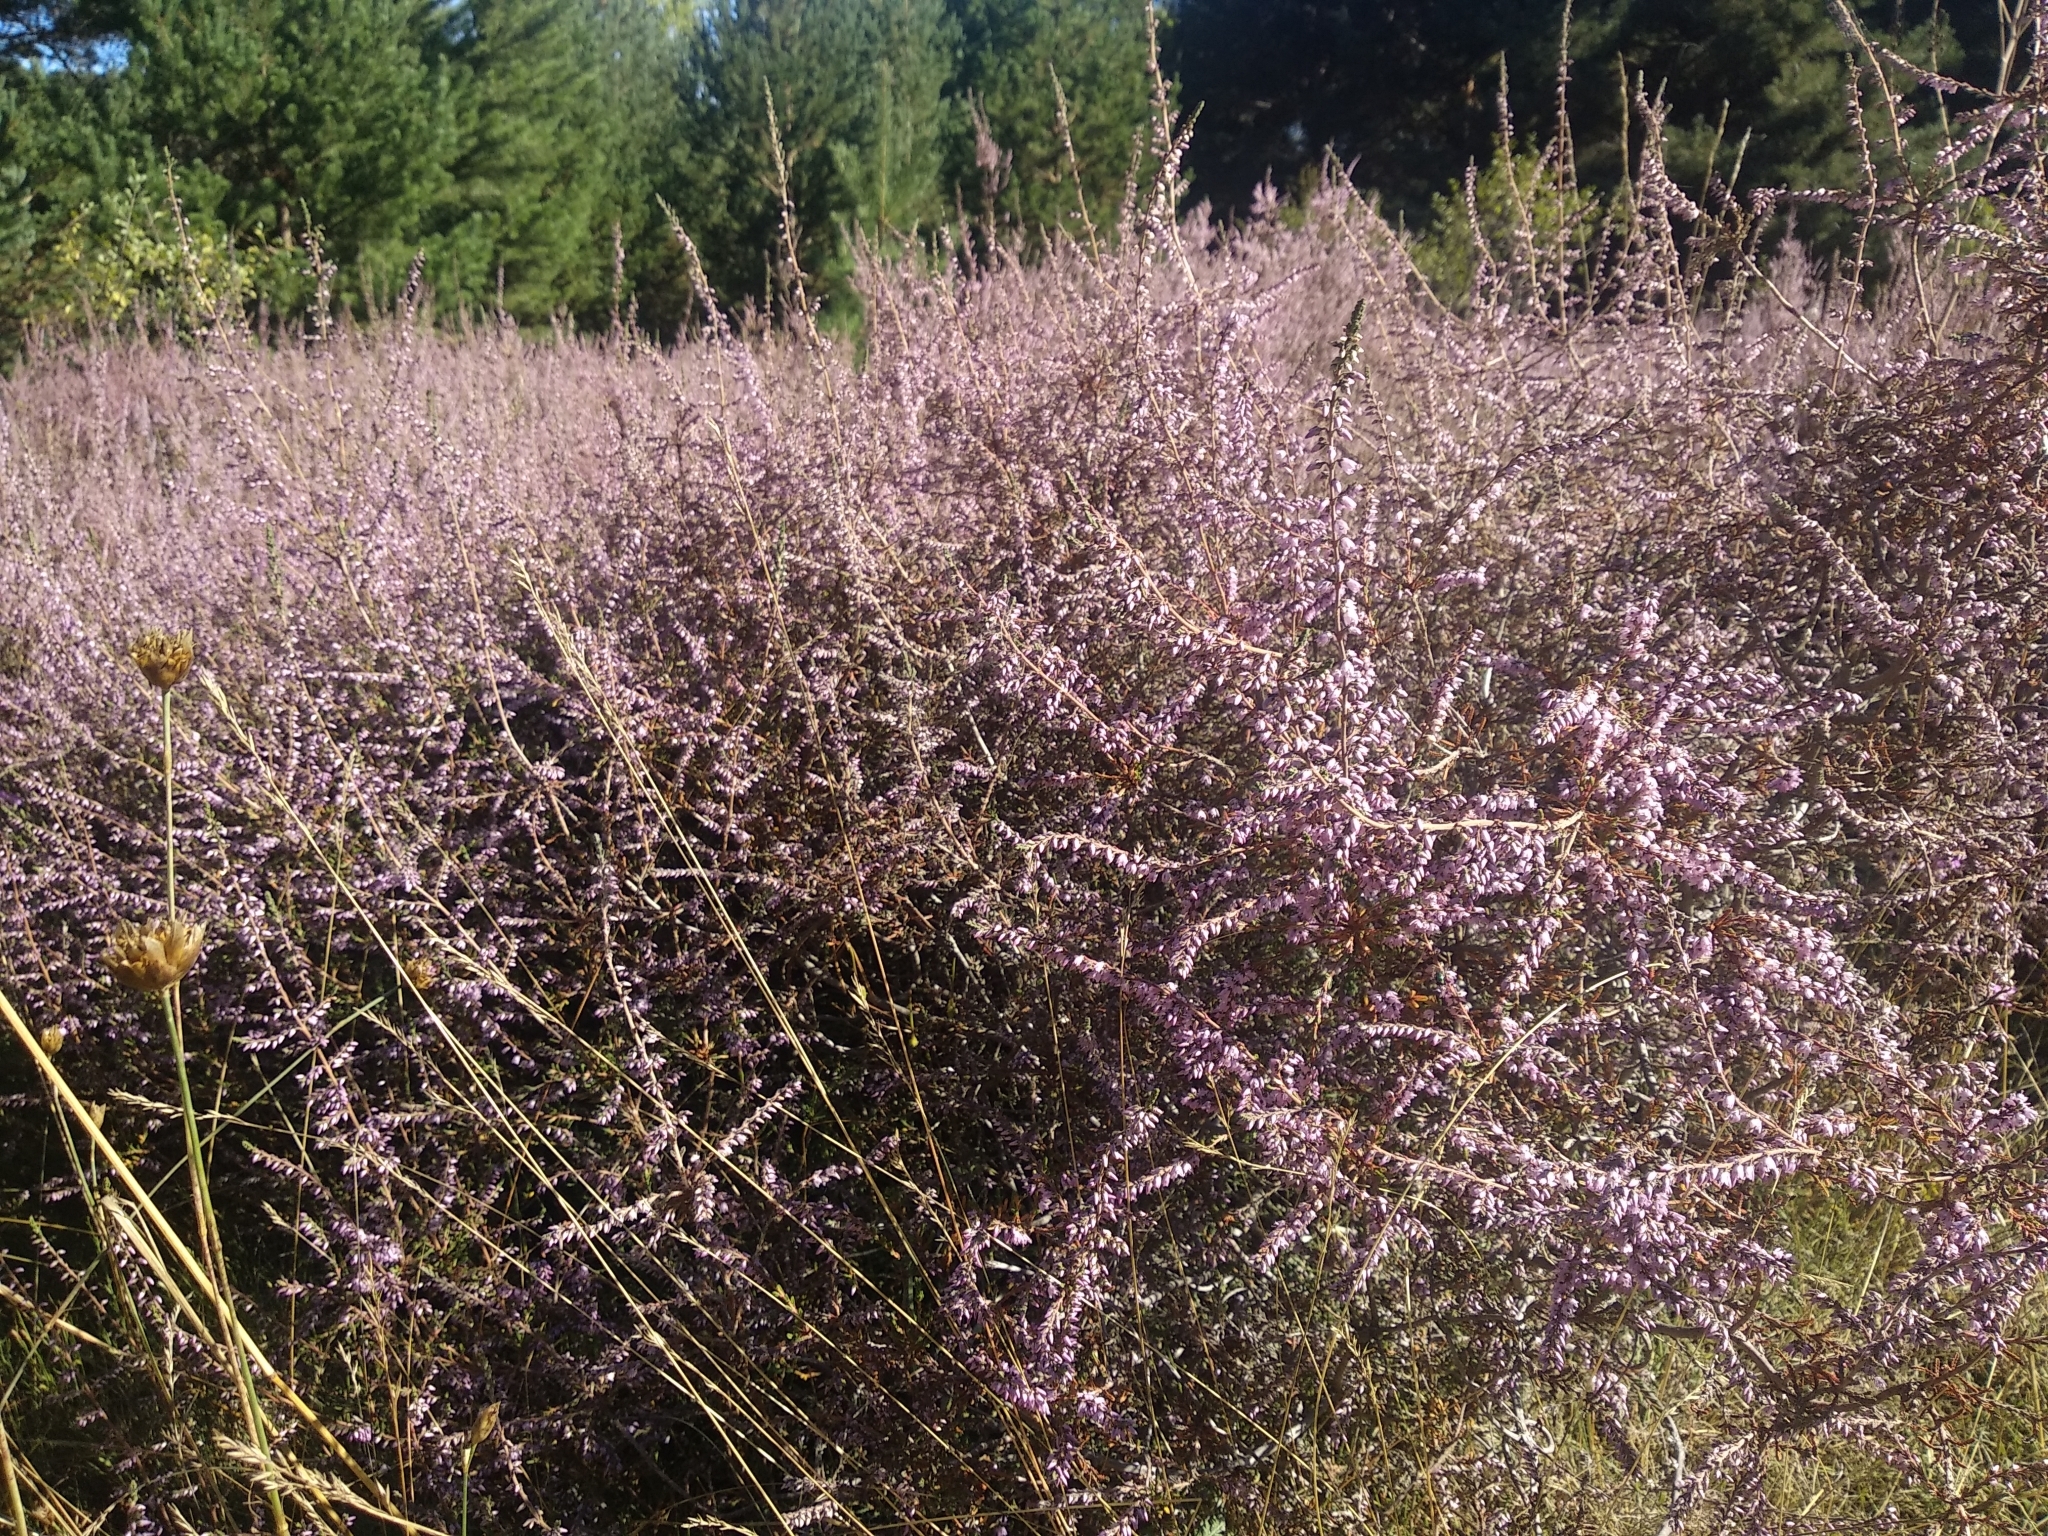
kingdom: Plantae
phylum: Tracheophyta
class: Magnoliopsida
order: Ericales
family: Ericaceae
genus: Calluna
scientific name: Calluna vulgaris
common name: Heather
